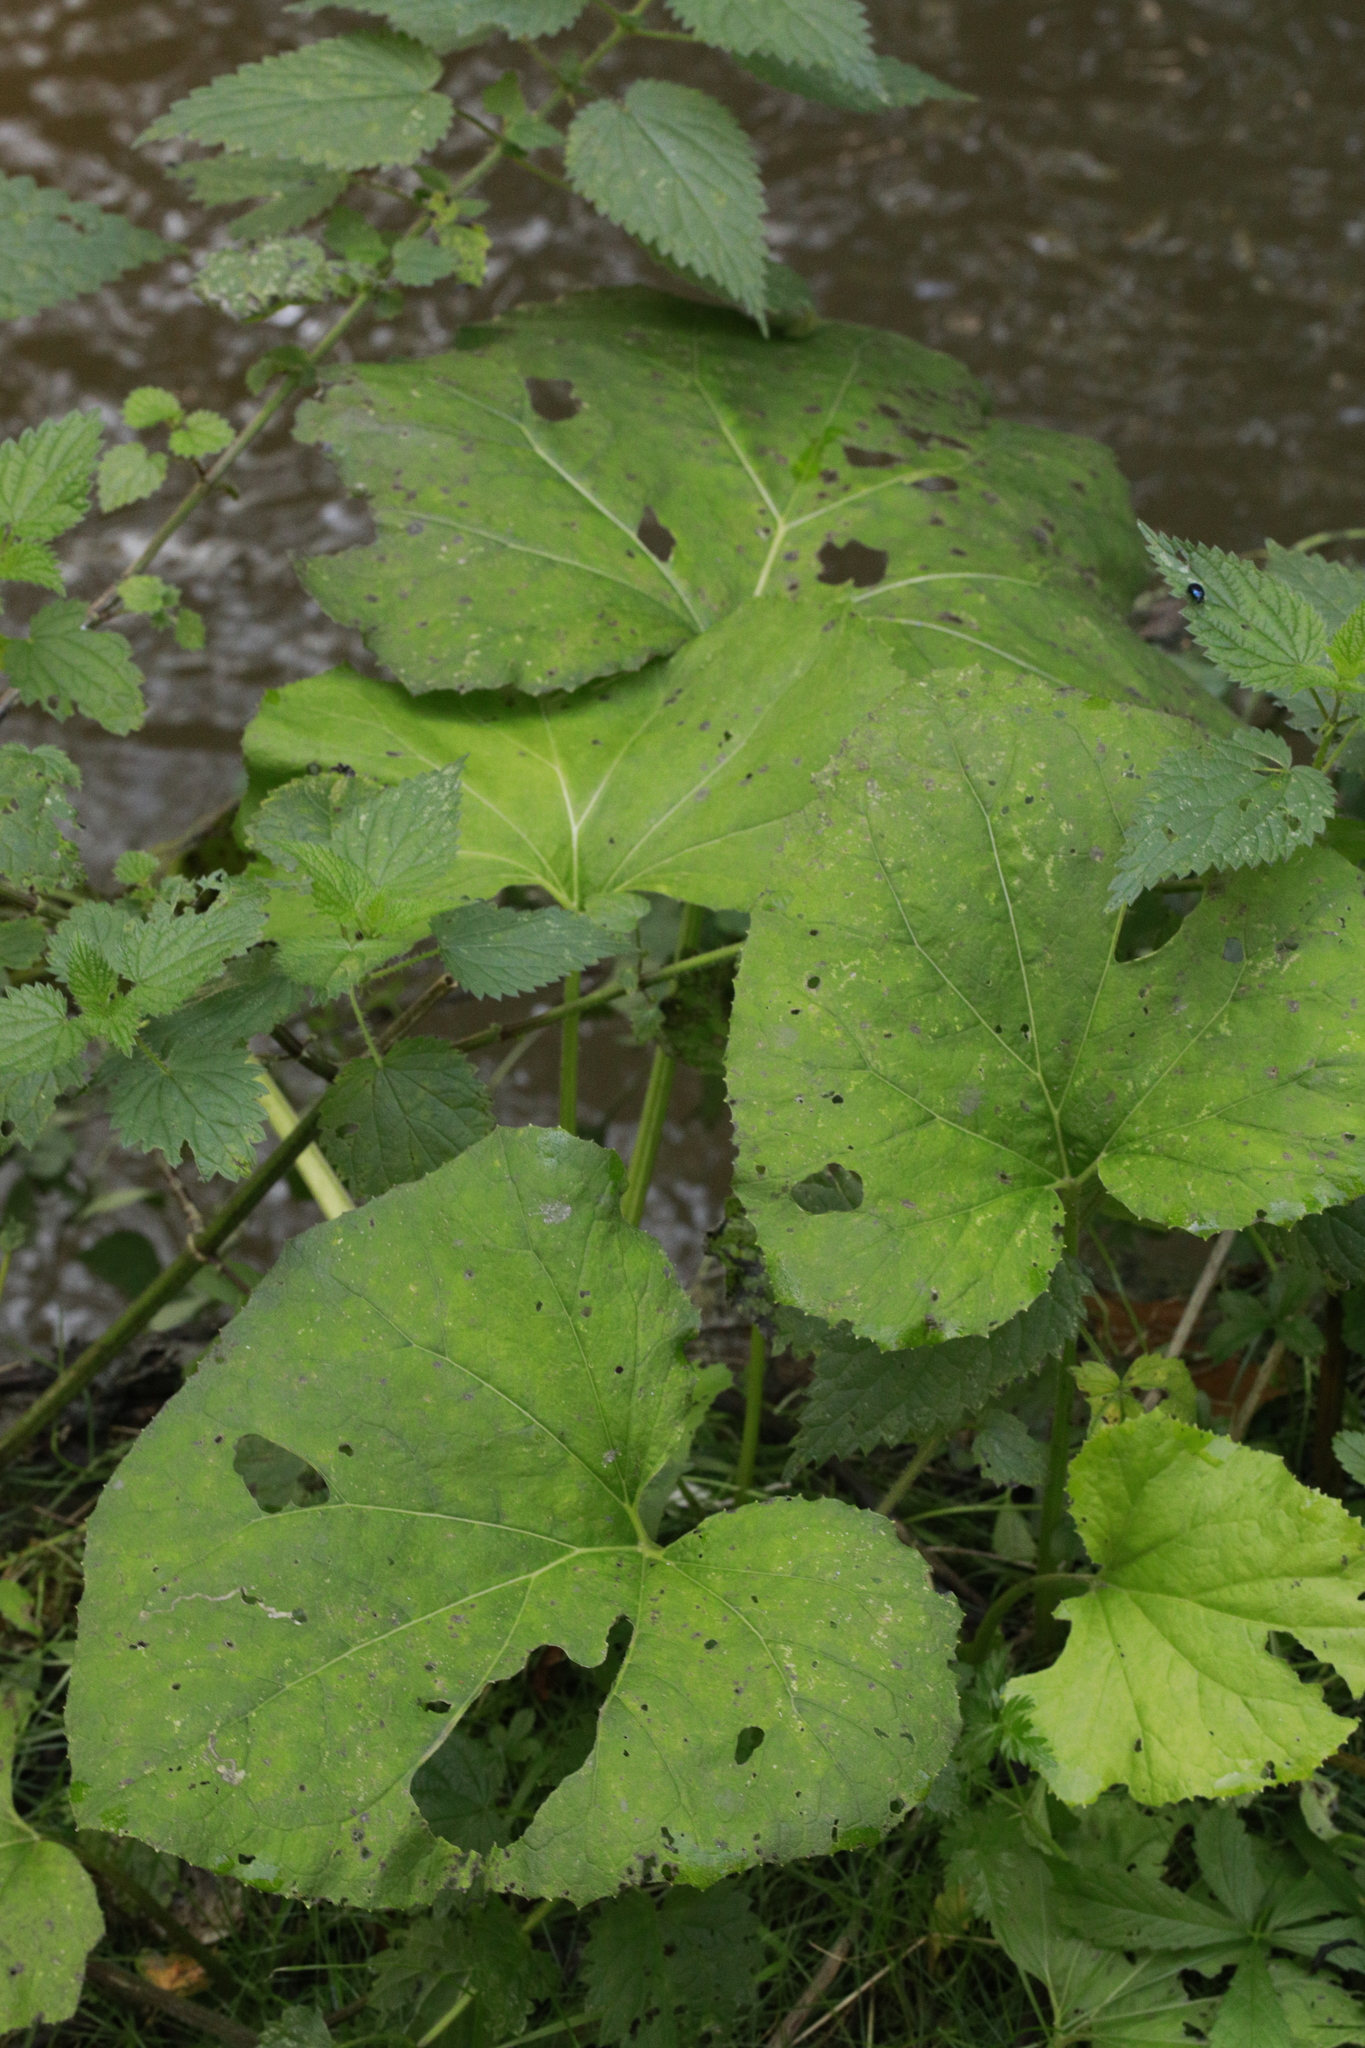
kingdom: Plantae
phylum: Tracheophyta
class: Magnoliopsida
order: Asterales
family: Asteraceae
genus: Tussilago
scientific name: Tussilago farfara
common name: Coltsfoot
